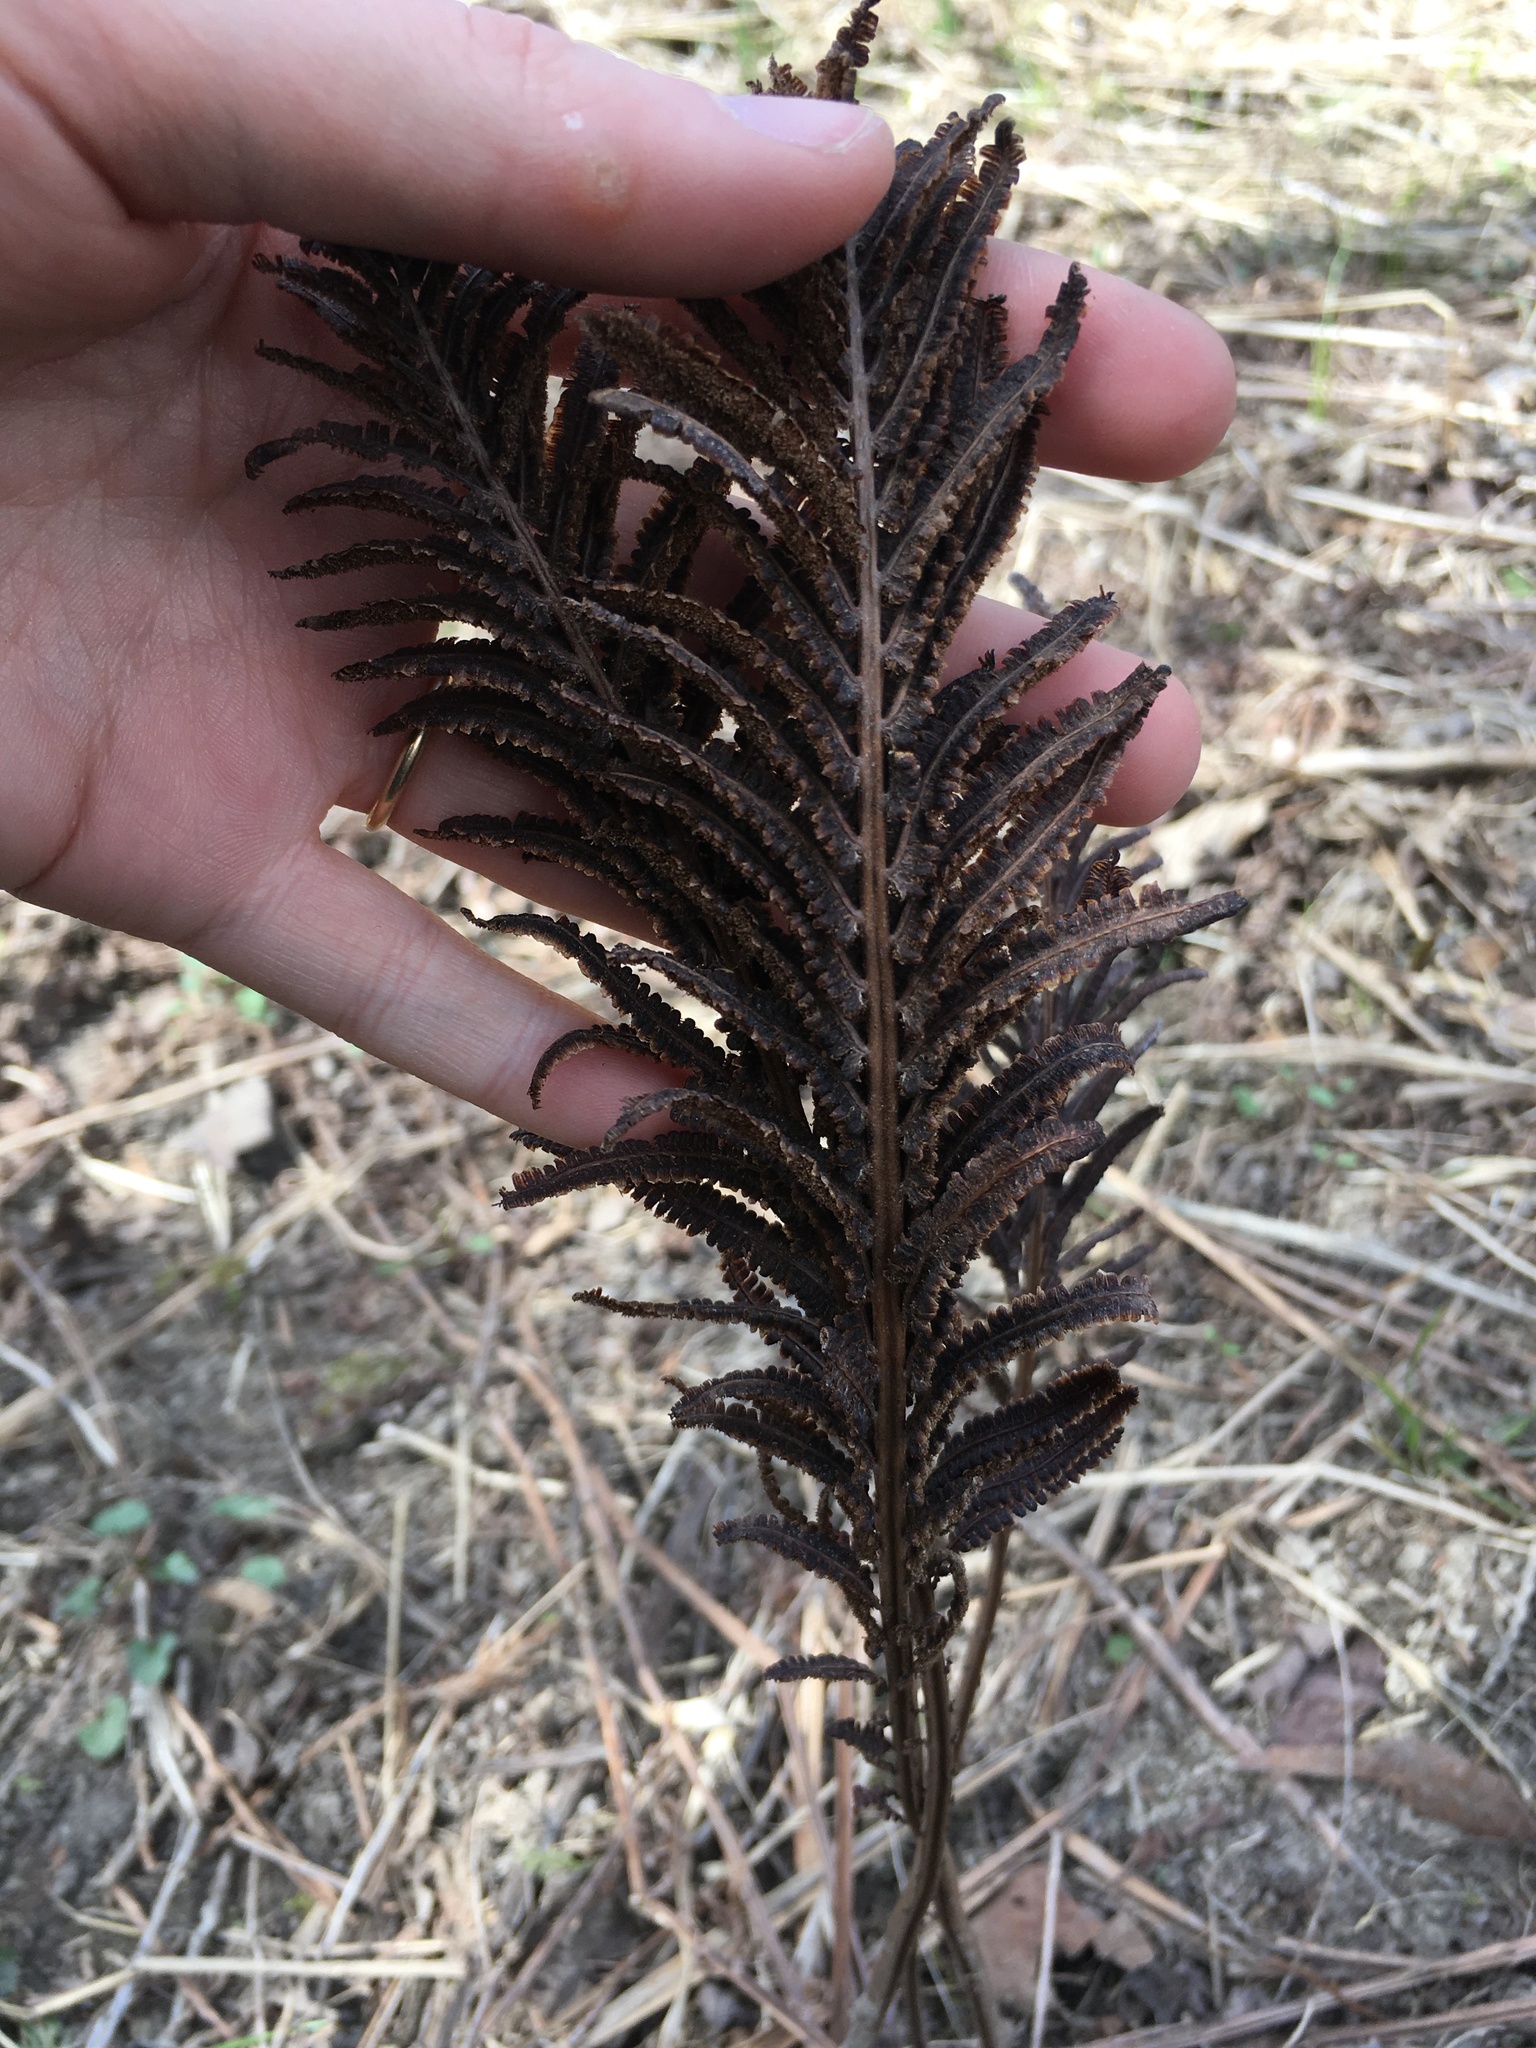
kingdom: Plantae
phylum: Tracheophyta
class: Polypodiopsida
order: Polypodiales
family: Onocleaceae
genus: Matteuccia
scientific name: Matteuccia struthiopteris
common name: Ostrich fern
